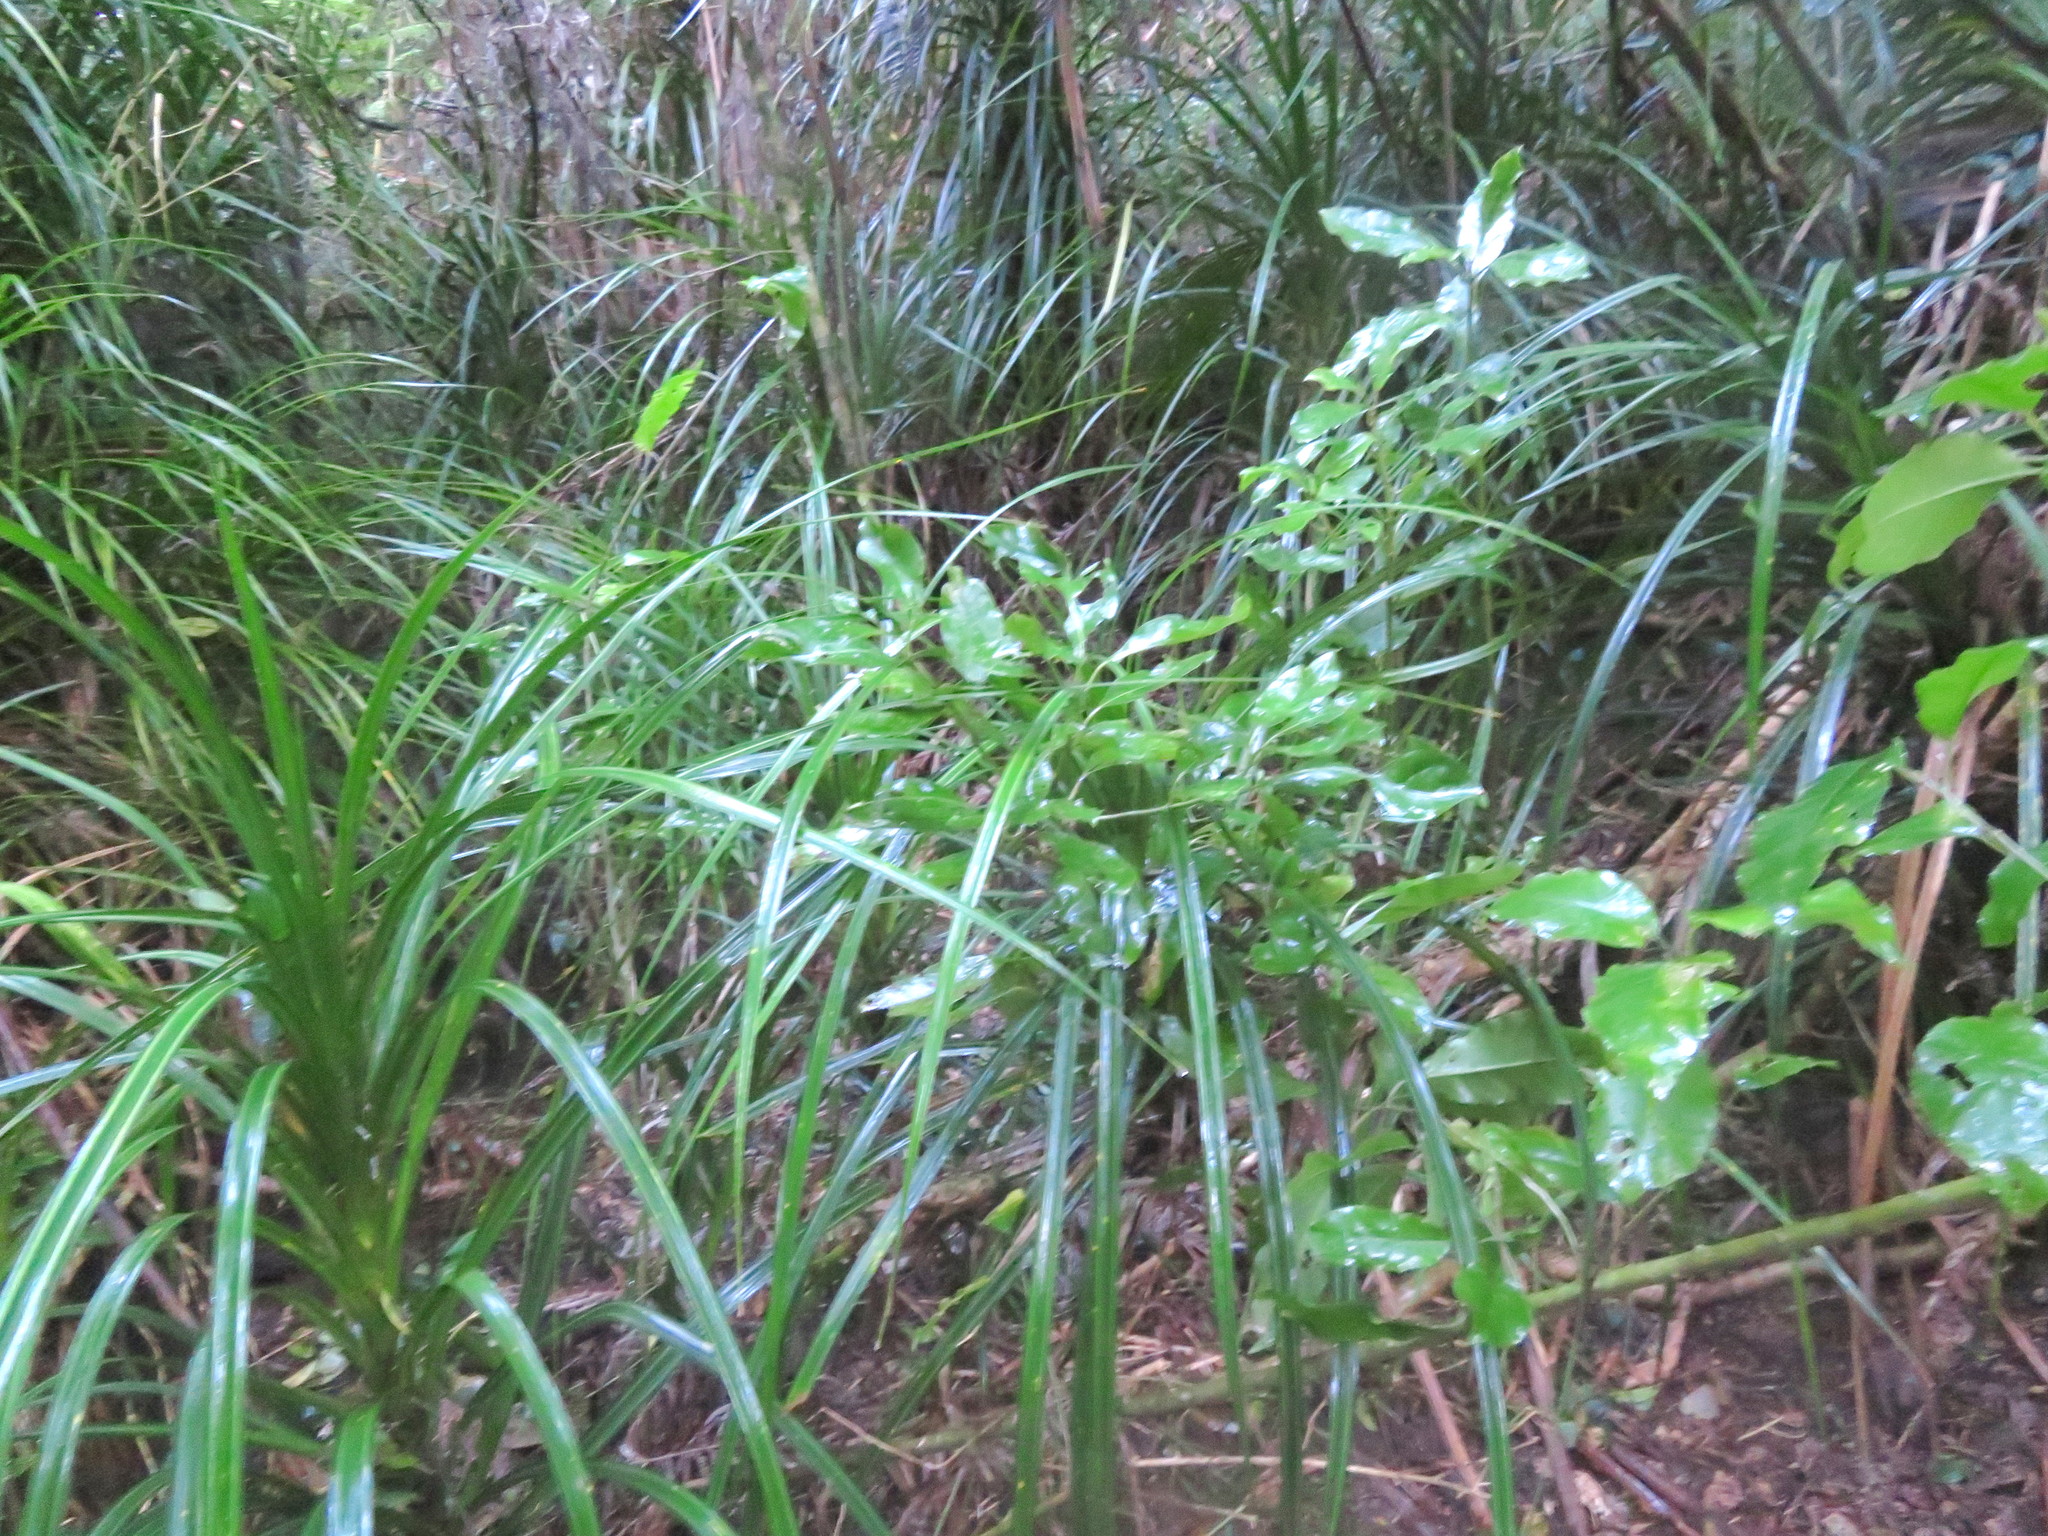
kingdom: Plantae
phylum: Tracheophyta
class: Liliopsida
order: Pandanales
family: Pandanaceae
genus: Freycinetia
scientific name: Freycinetia banksii
